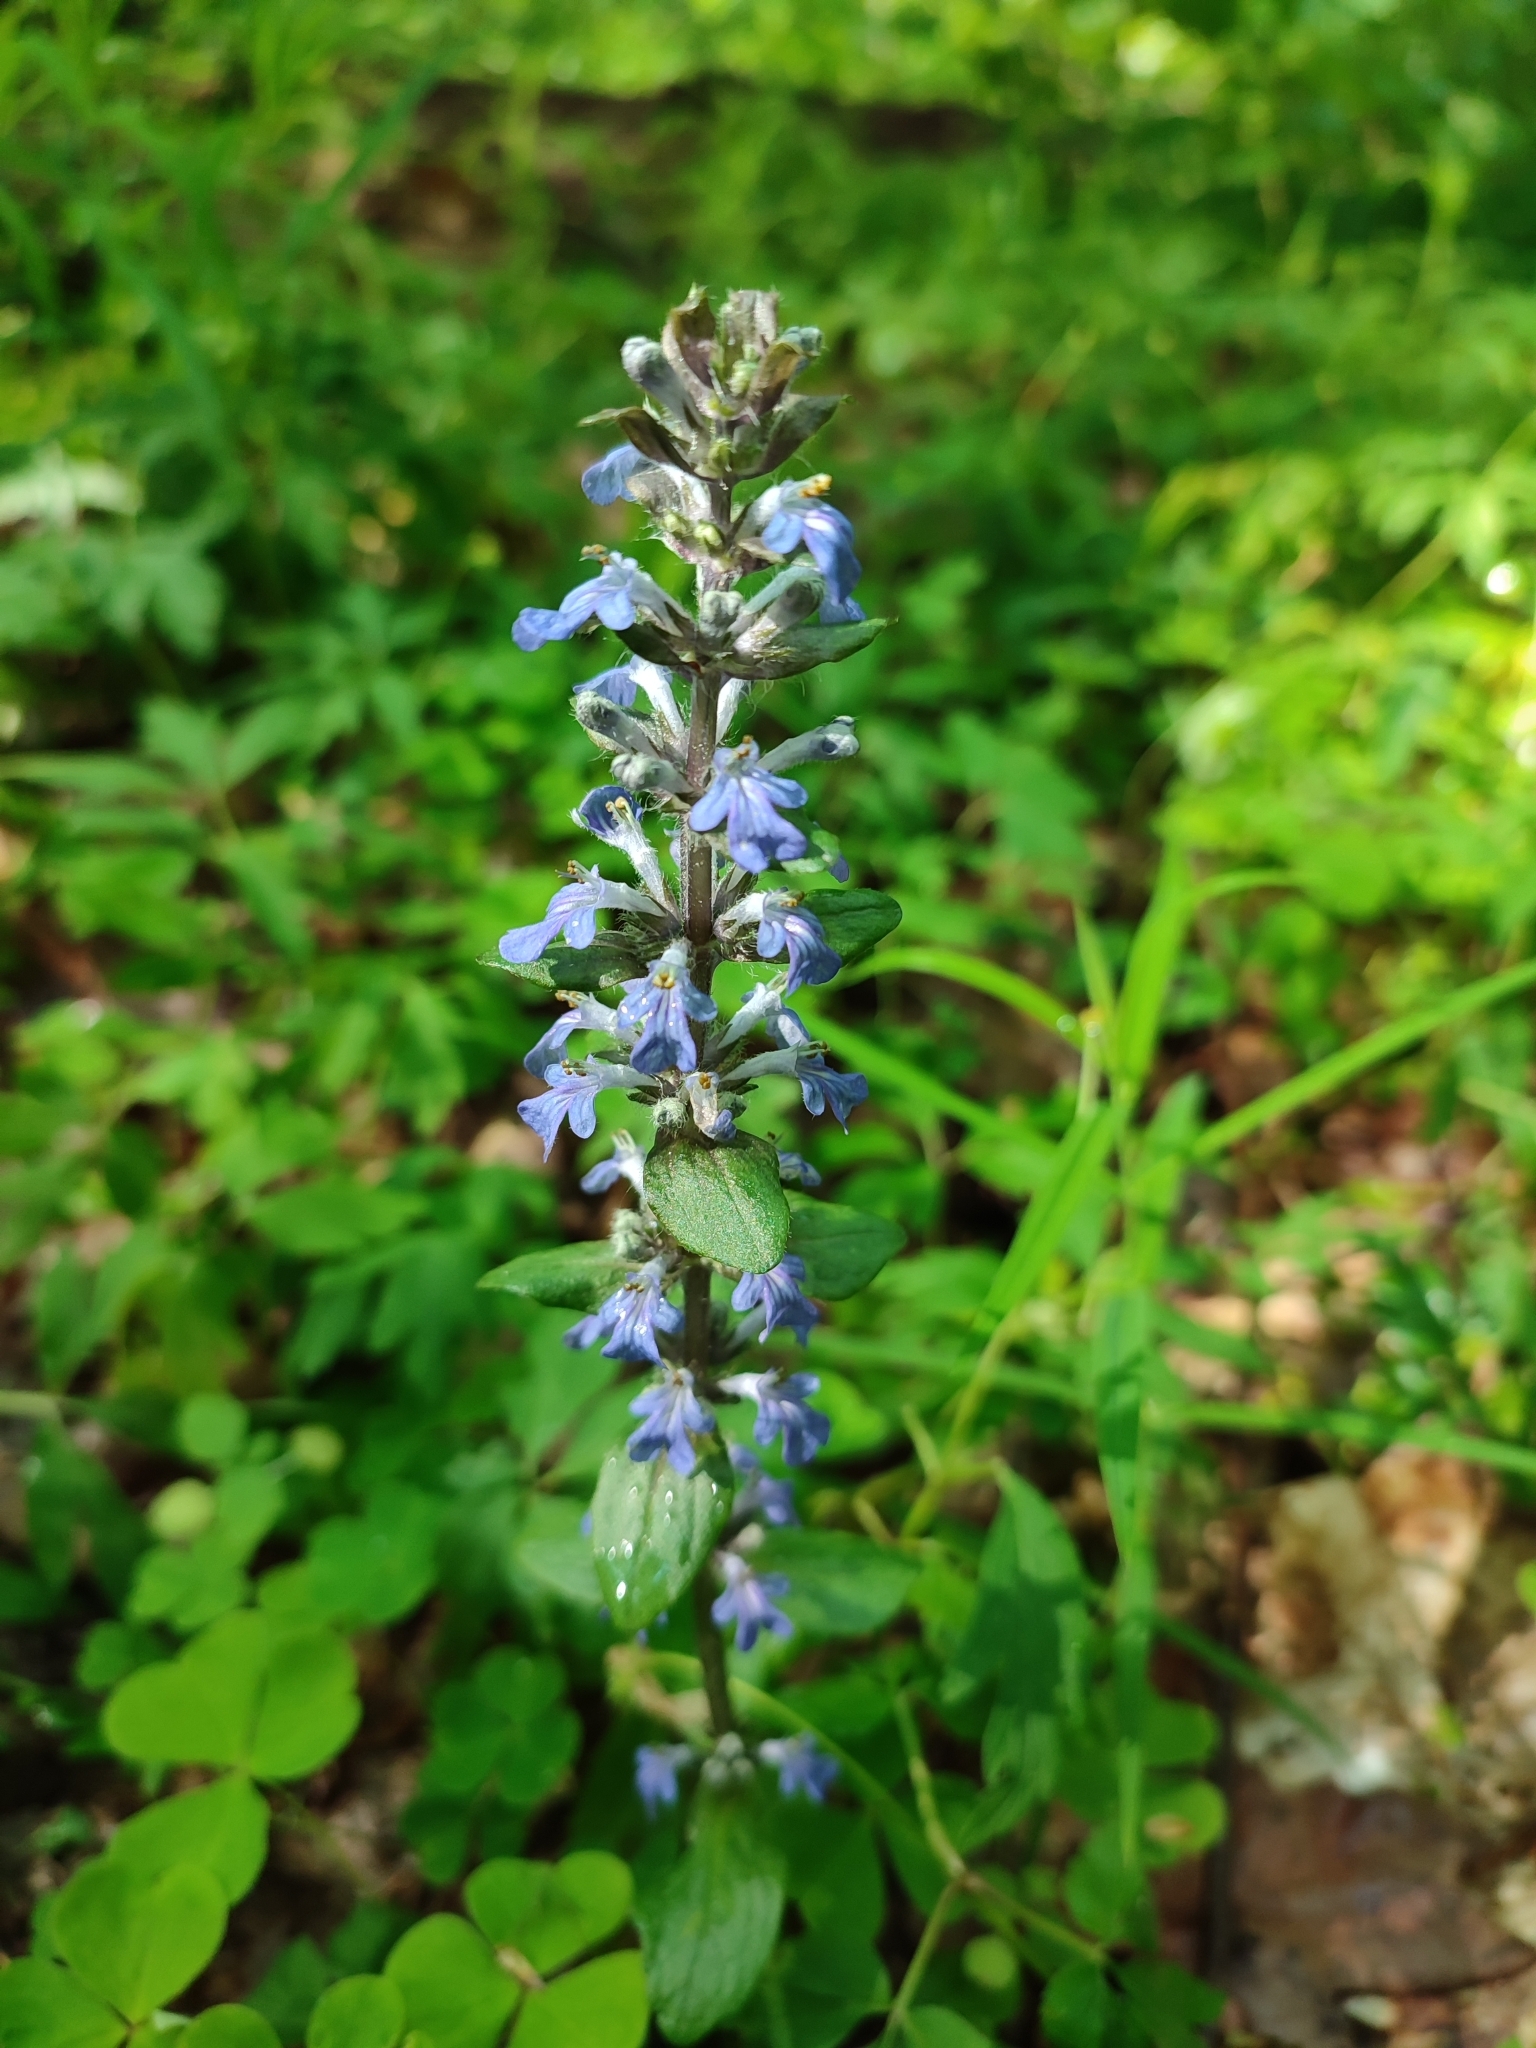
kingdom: Plantae
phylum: Tracheophyta
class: Magnoliopsida
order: Lamiales
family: Lamiaceae
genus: Ajuga
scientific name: Ajuga reptans
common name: Bugle
